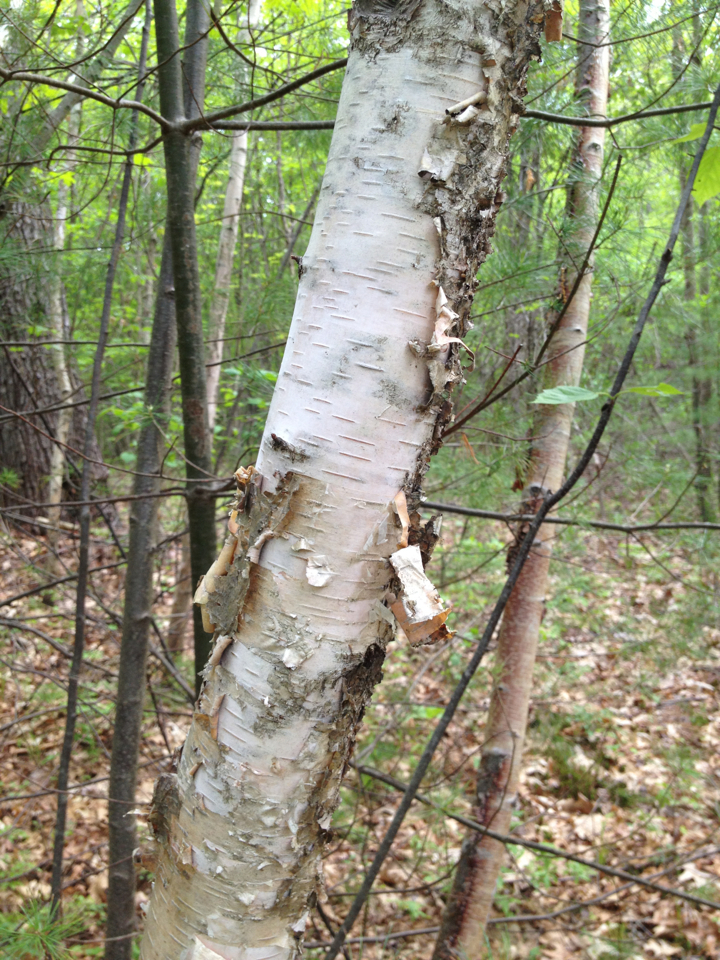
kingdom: Plantae
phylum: Tracheophyta
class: Magnoliopsida
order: Fagales
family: Betulaceae
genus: Betula
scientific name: Betula papyrifera
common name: Paper birch
